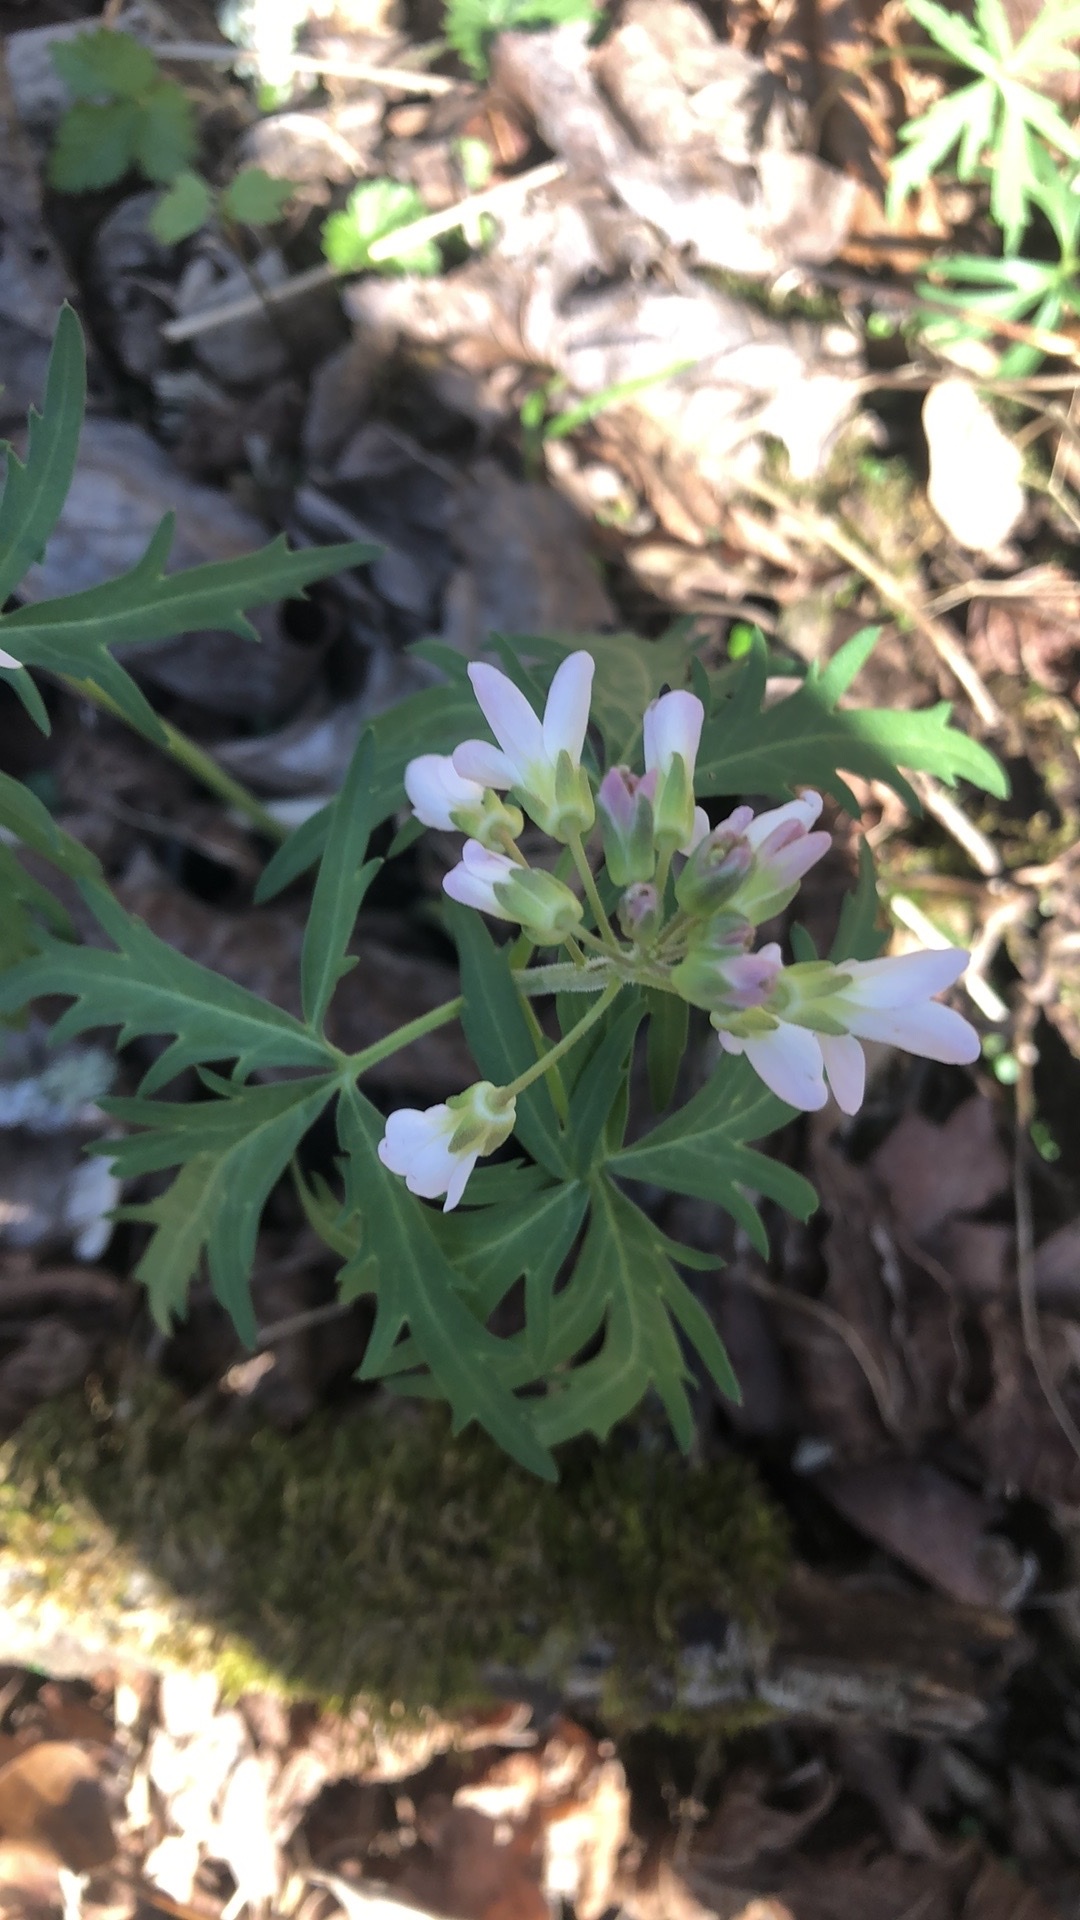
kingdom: Plantae
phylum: Tracheophyta
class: Magnoliopsida
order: Brassicales
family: Brassicaceae
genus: Cardamine
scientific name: Cardamine concatenata
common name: Cut-leaf toothcup
